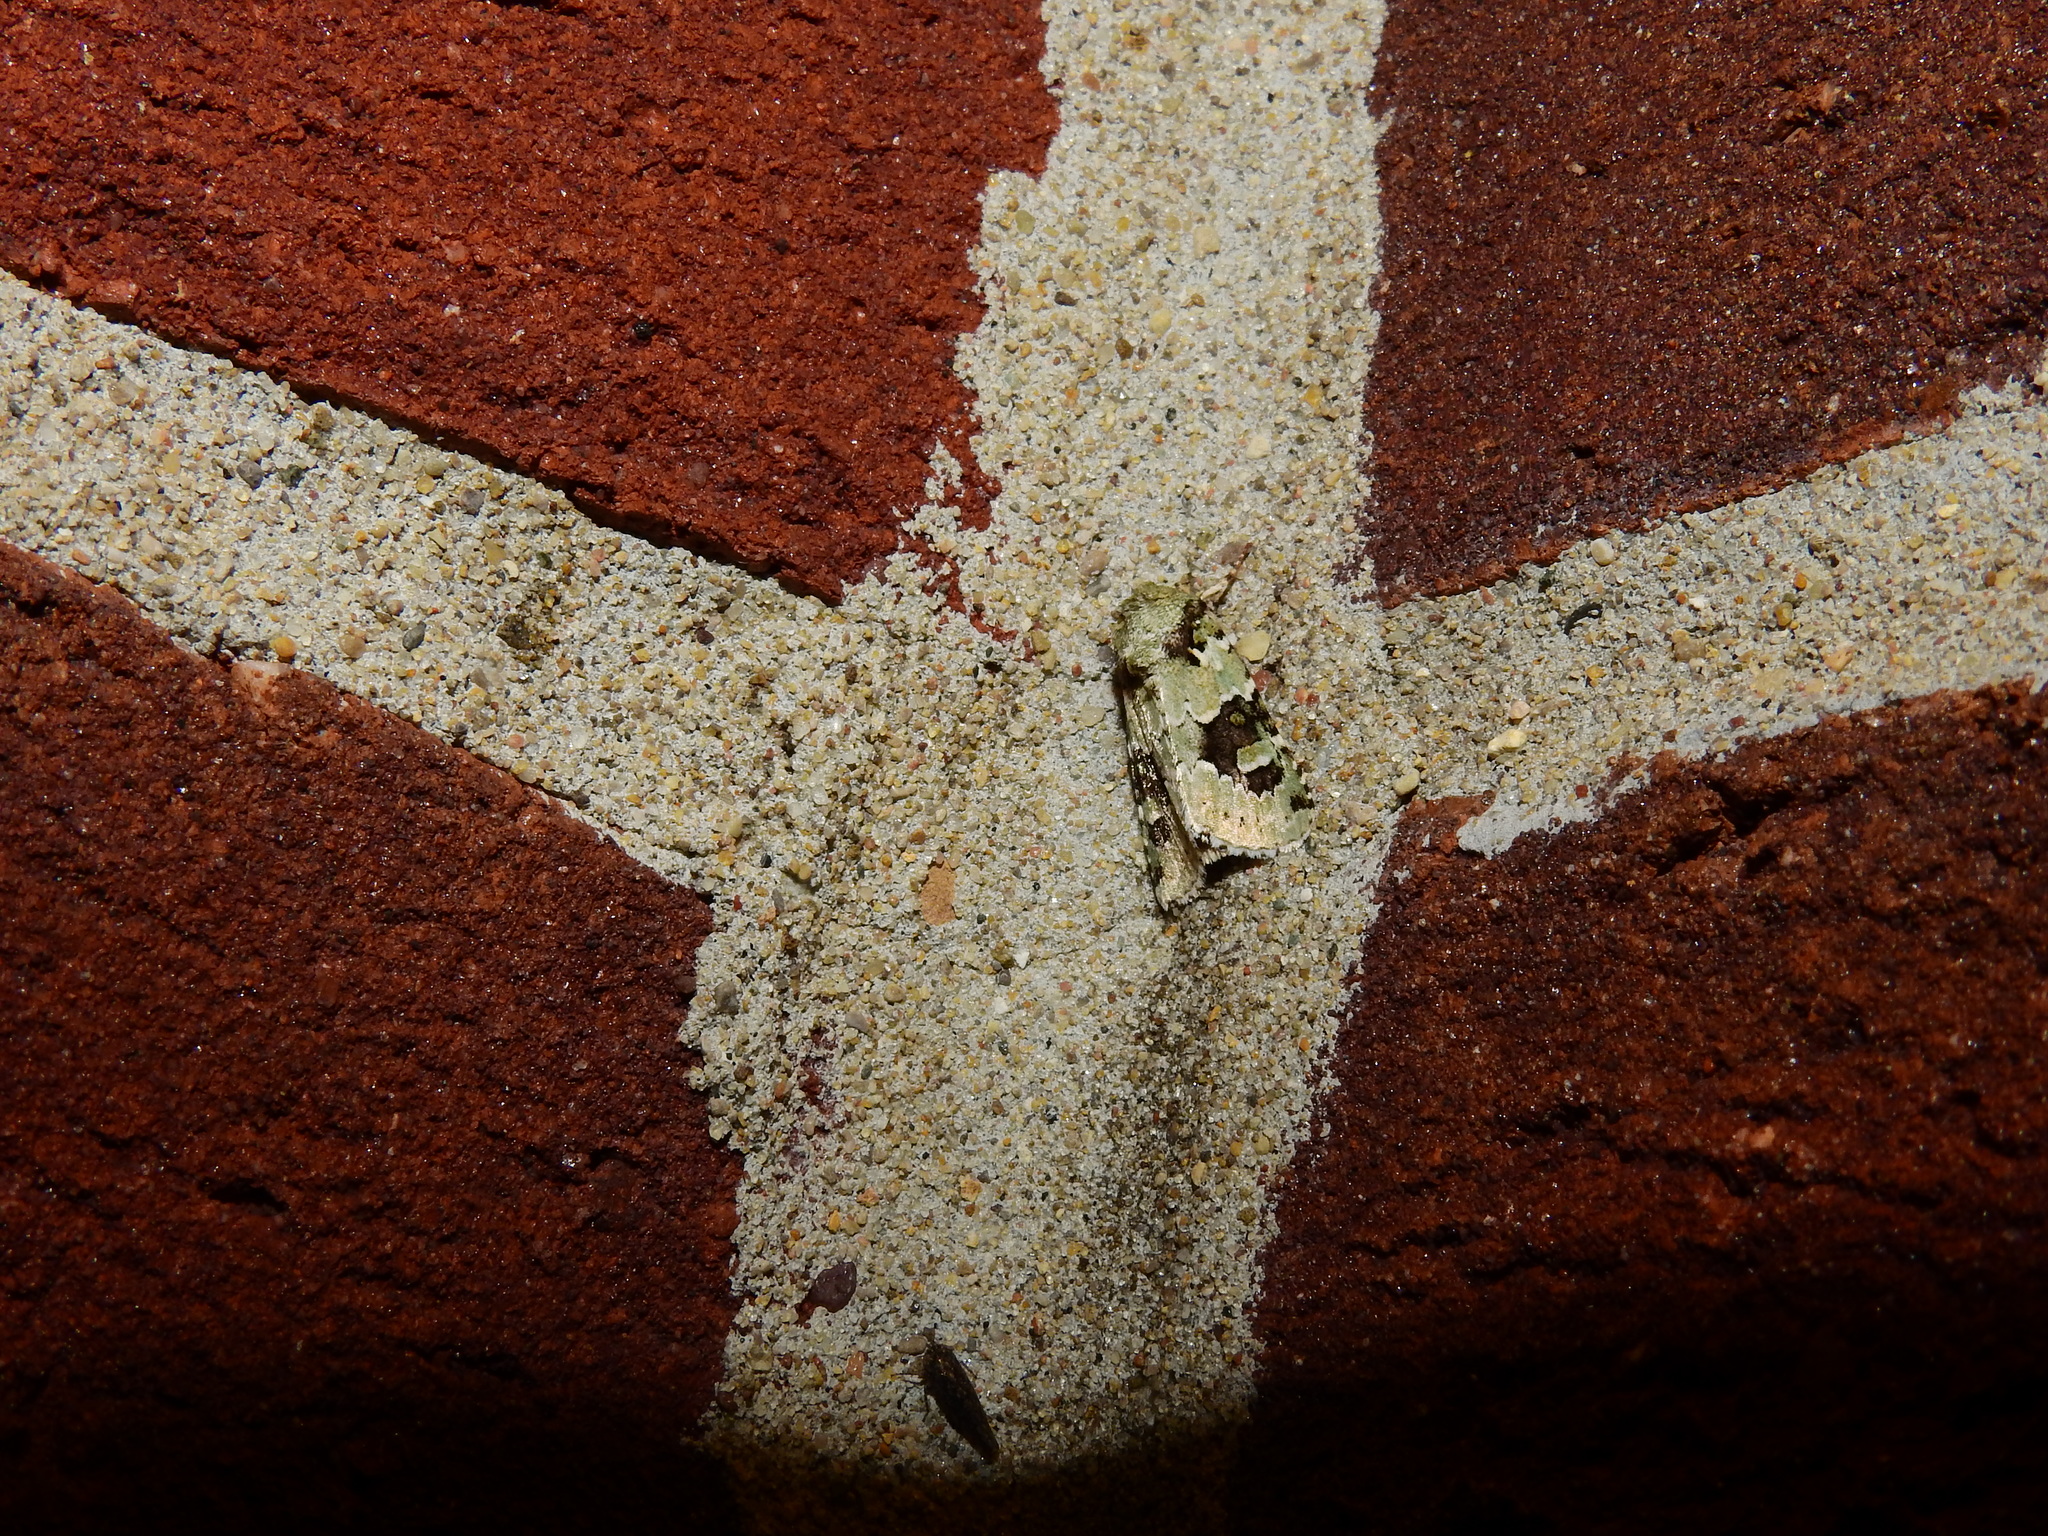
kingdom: Animalia
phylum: Arthropoda
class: Insecta
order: Lepidoptera
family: Noctuidae
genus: Lacinipolia
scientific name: Lacinipolia implicata
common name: Implicit arches
